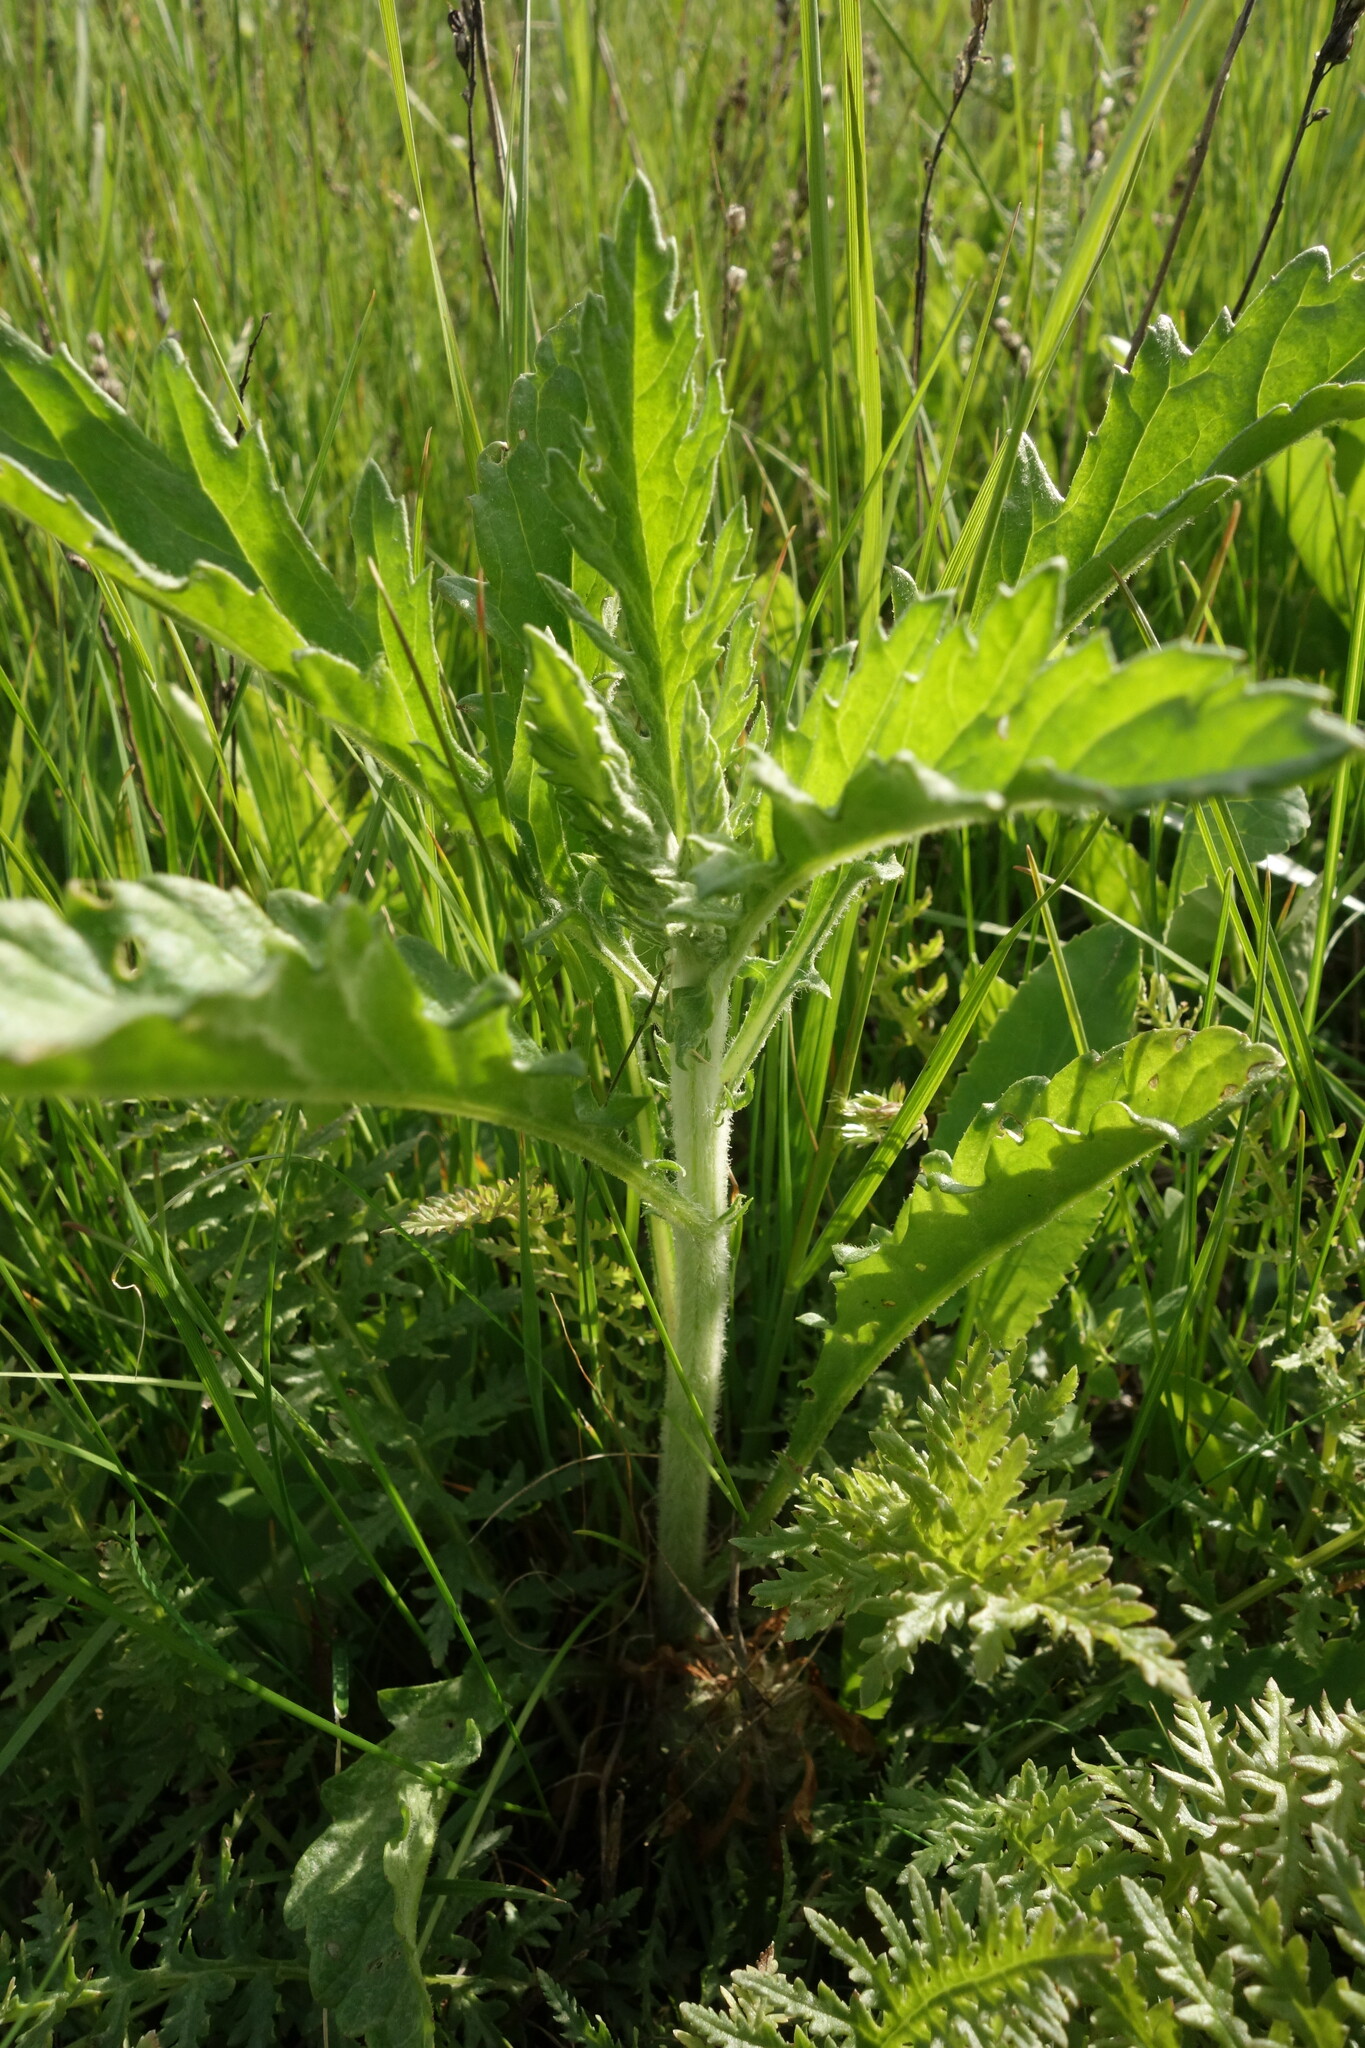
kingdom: Plantae
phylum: Tracheophyta
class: Magnoliopsida
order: Asterales
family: Asteraceae
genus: Jacobaea
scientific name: Jacobaea erucifolia
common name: Hoary ragwort
